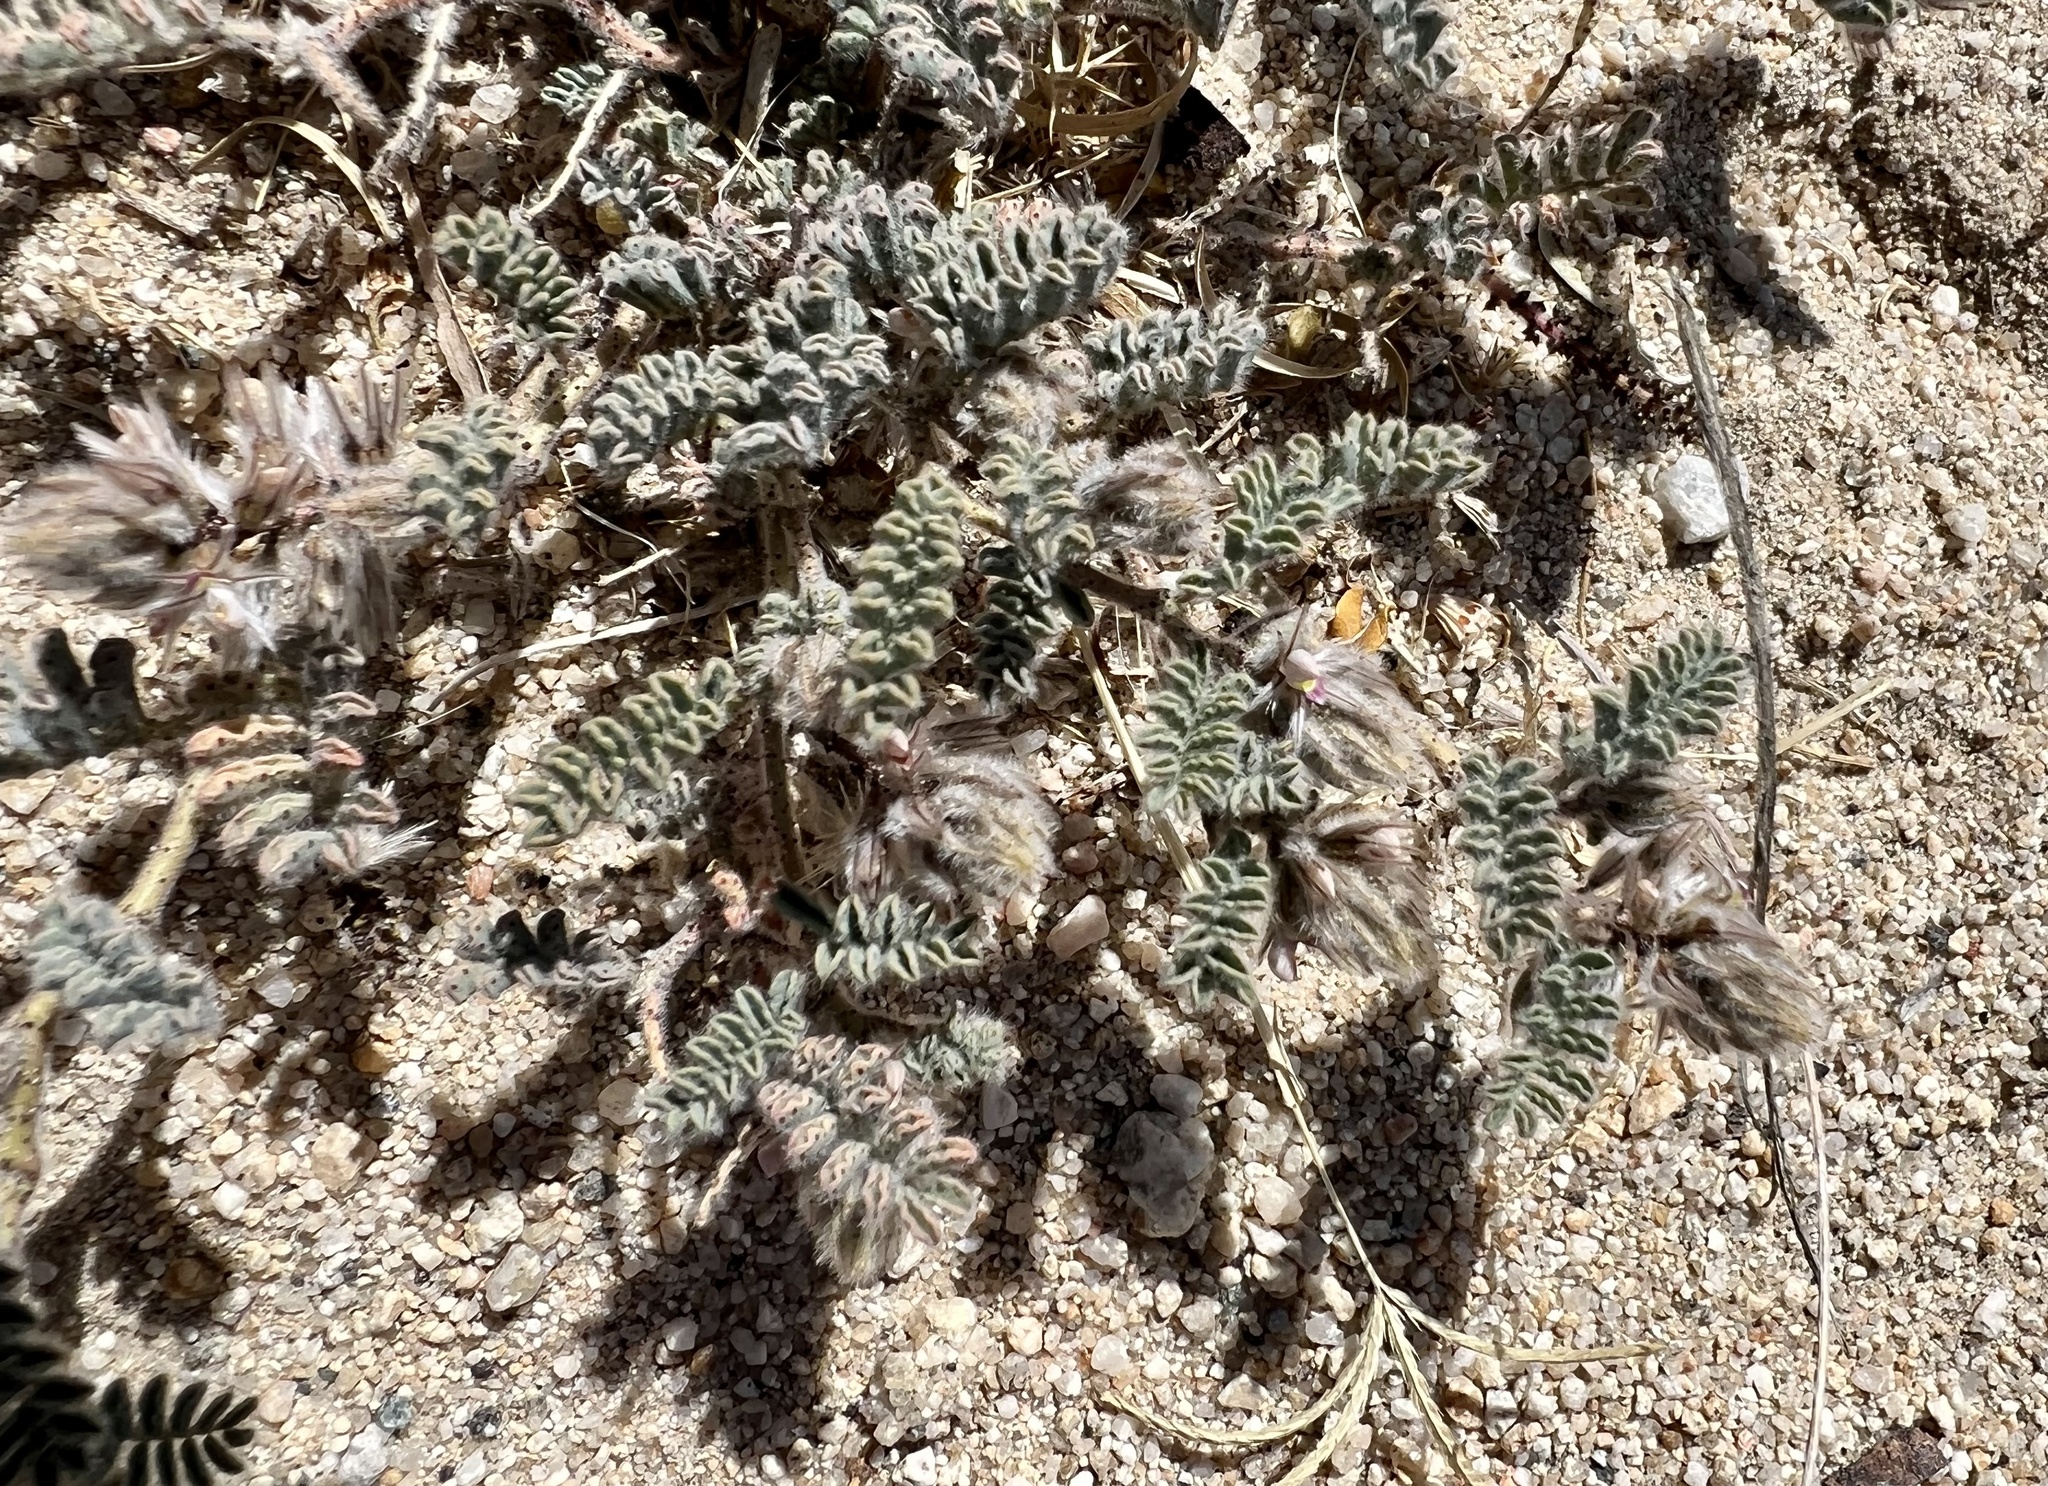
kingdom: Plantae
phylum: Tracheophyta
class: Magnoliopsida
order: Fabales
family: Fabaceae
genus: Dalea
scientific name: Dalea mollissima
